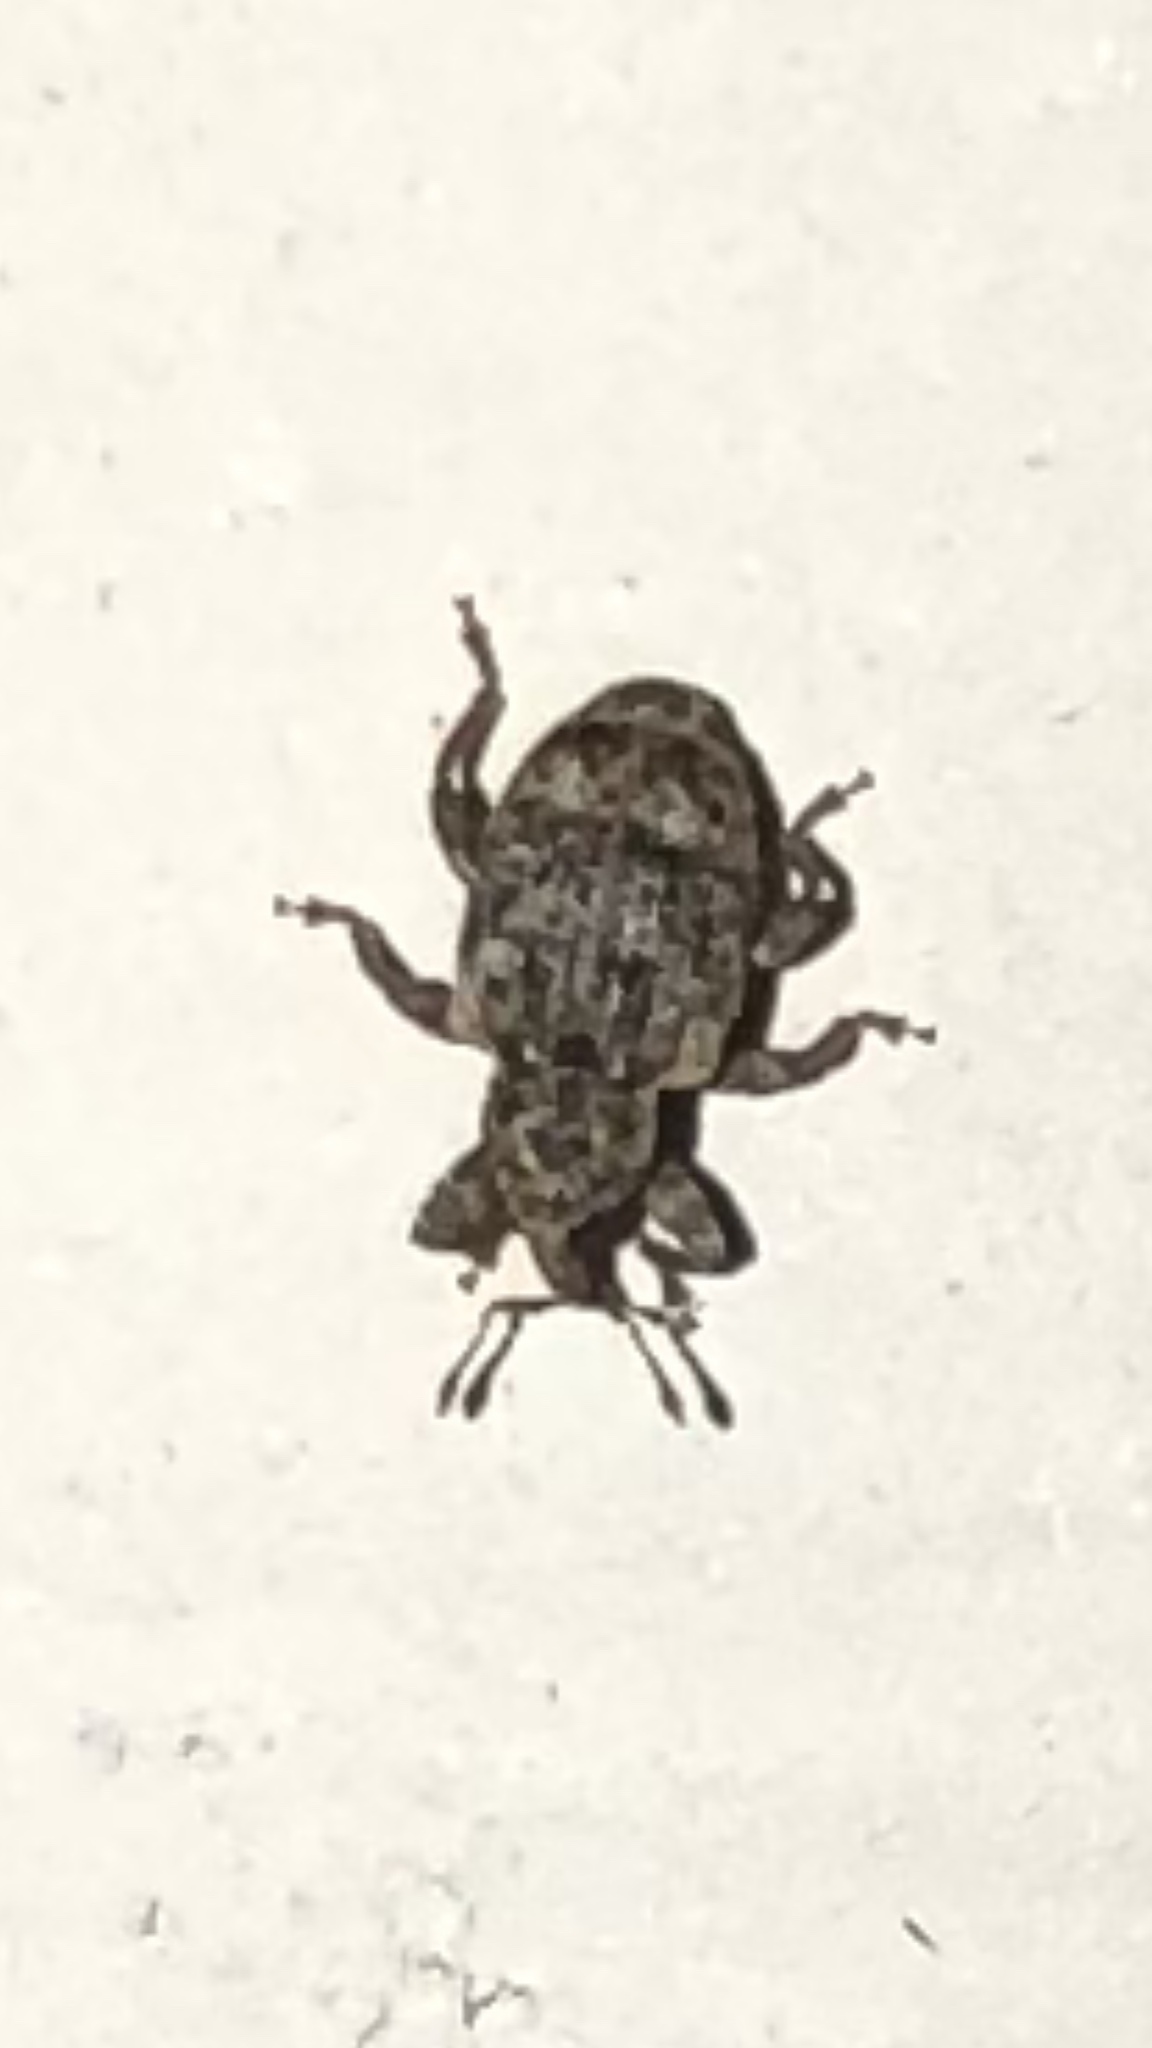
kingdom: Animalia
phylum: Arthropoda
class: Insecta
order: Coleoptera
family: Curculionidae
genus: Conotrachelus
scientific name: Conotrachelus recessus
